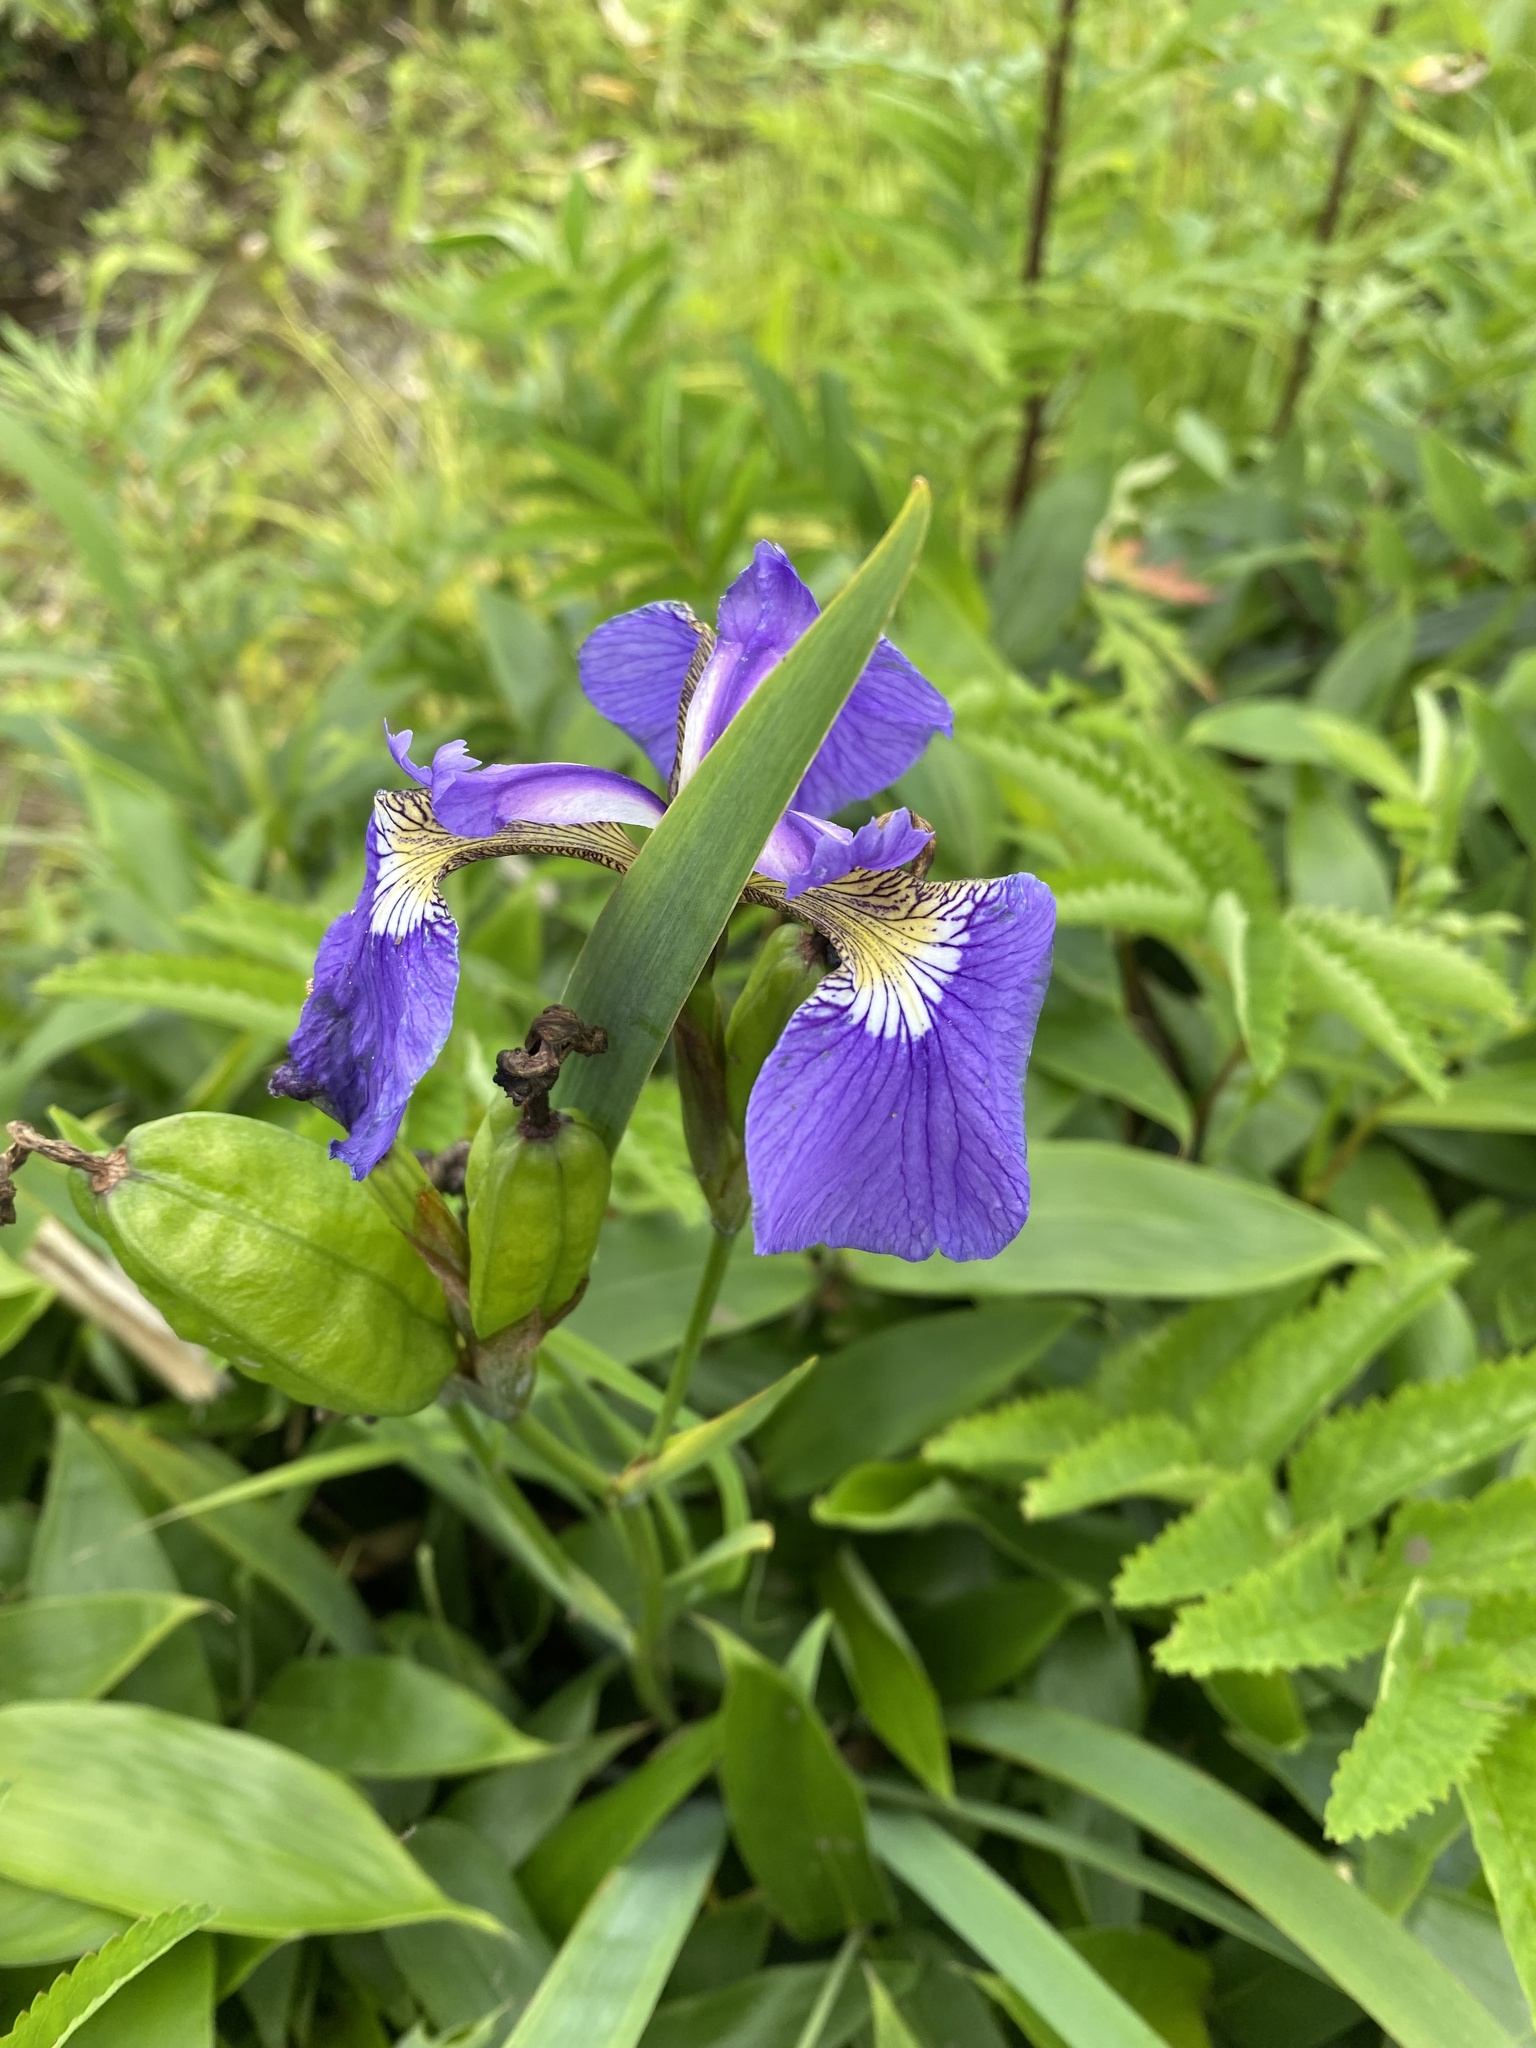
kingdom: Plantae
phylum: Tracheophyta
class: Liliopsida
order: Asparagales
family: Iridaceae
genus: Iris
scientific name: Iris setosa
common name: Arctic blue flag
